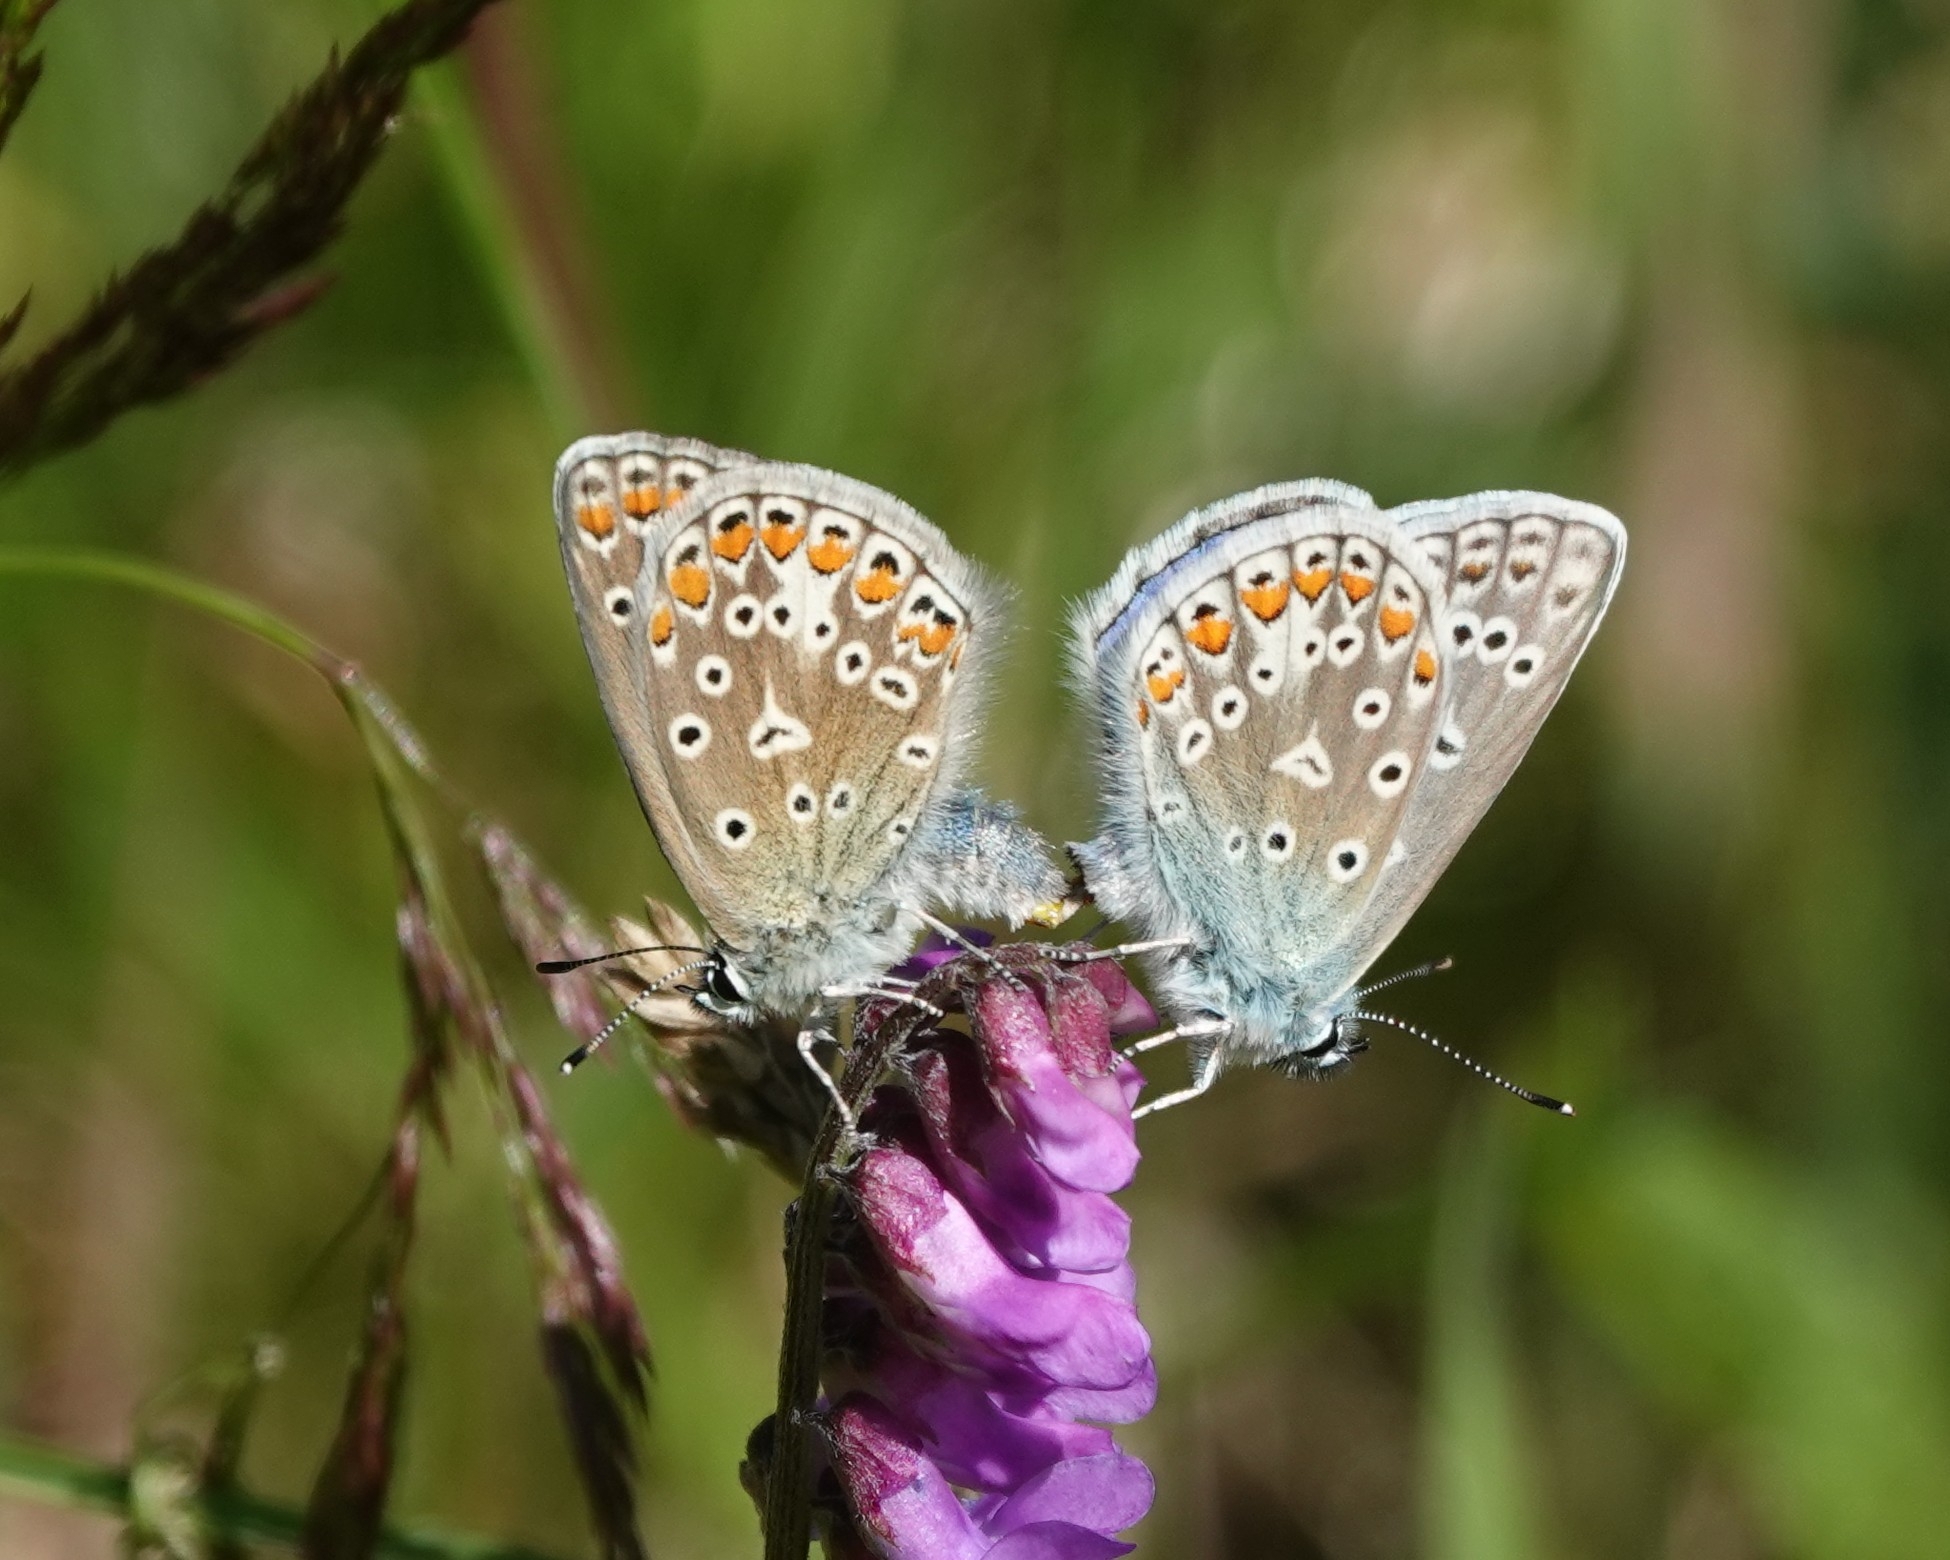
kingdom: Animalia
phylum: Arthropoda
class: Insecta
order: Lepidoptera
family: Lycaenidae
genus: Polyommatus
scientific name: Polyommatus icarus
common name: Common blue
